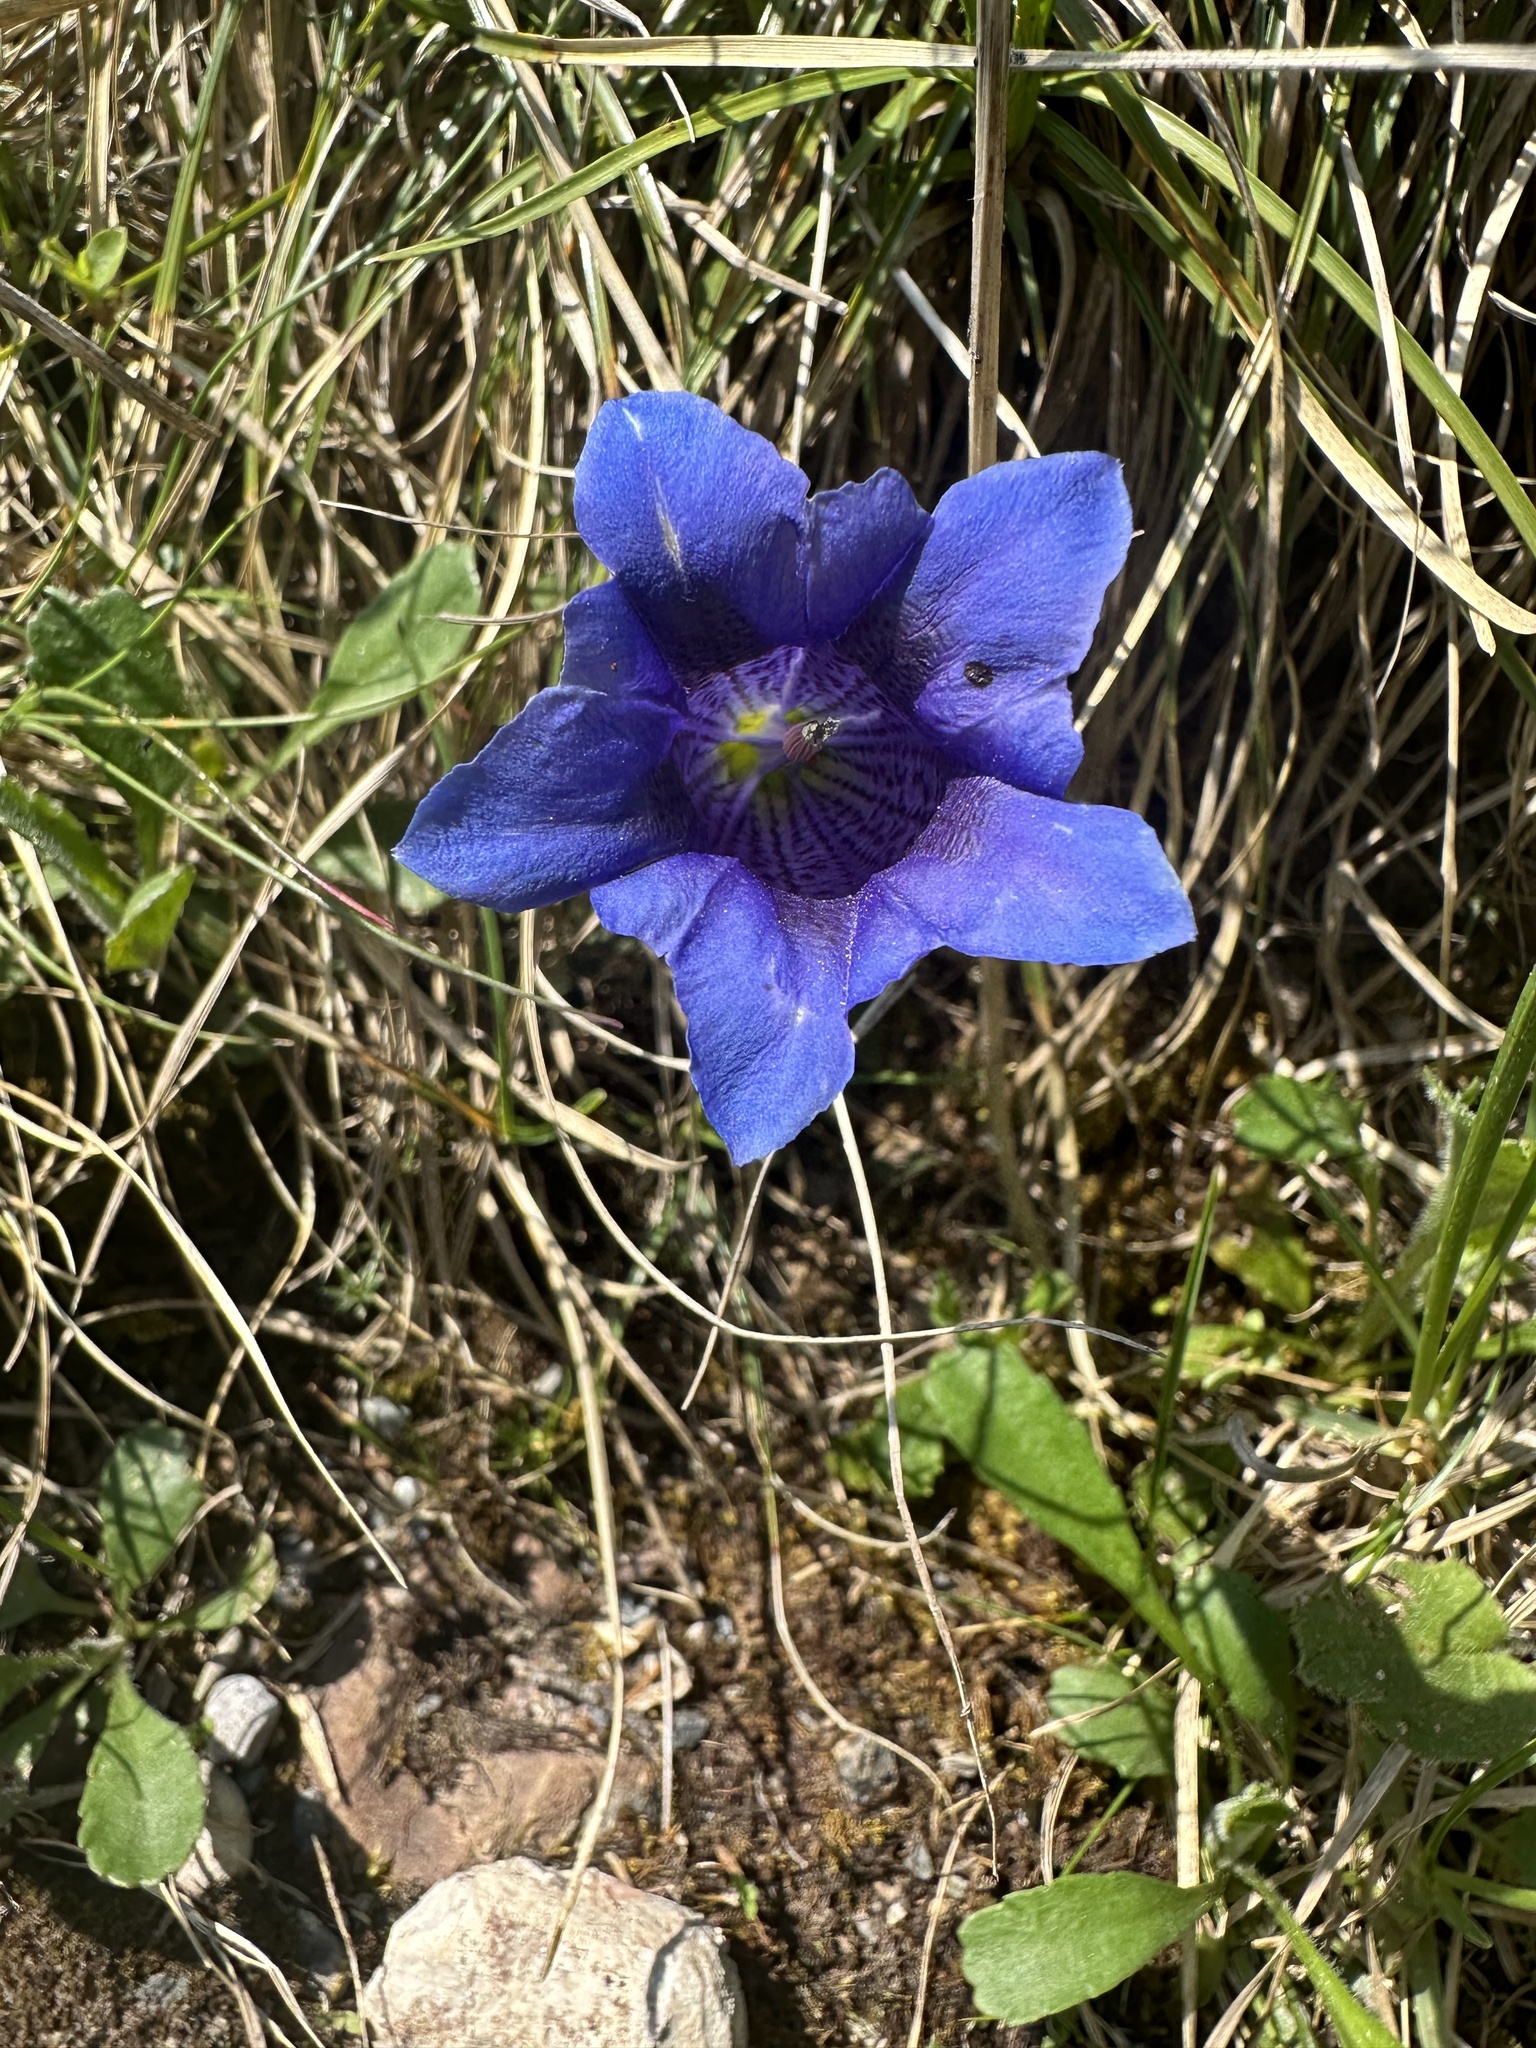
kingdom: Plantae
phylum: Tracheophyta
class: Magnoliopsida
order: Gentianales
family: Gentianaceae
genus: Gentiana
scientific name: Gentiana clusii
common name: Trumpet gentian
